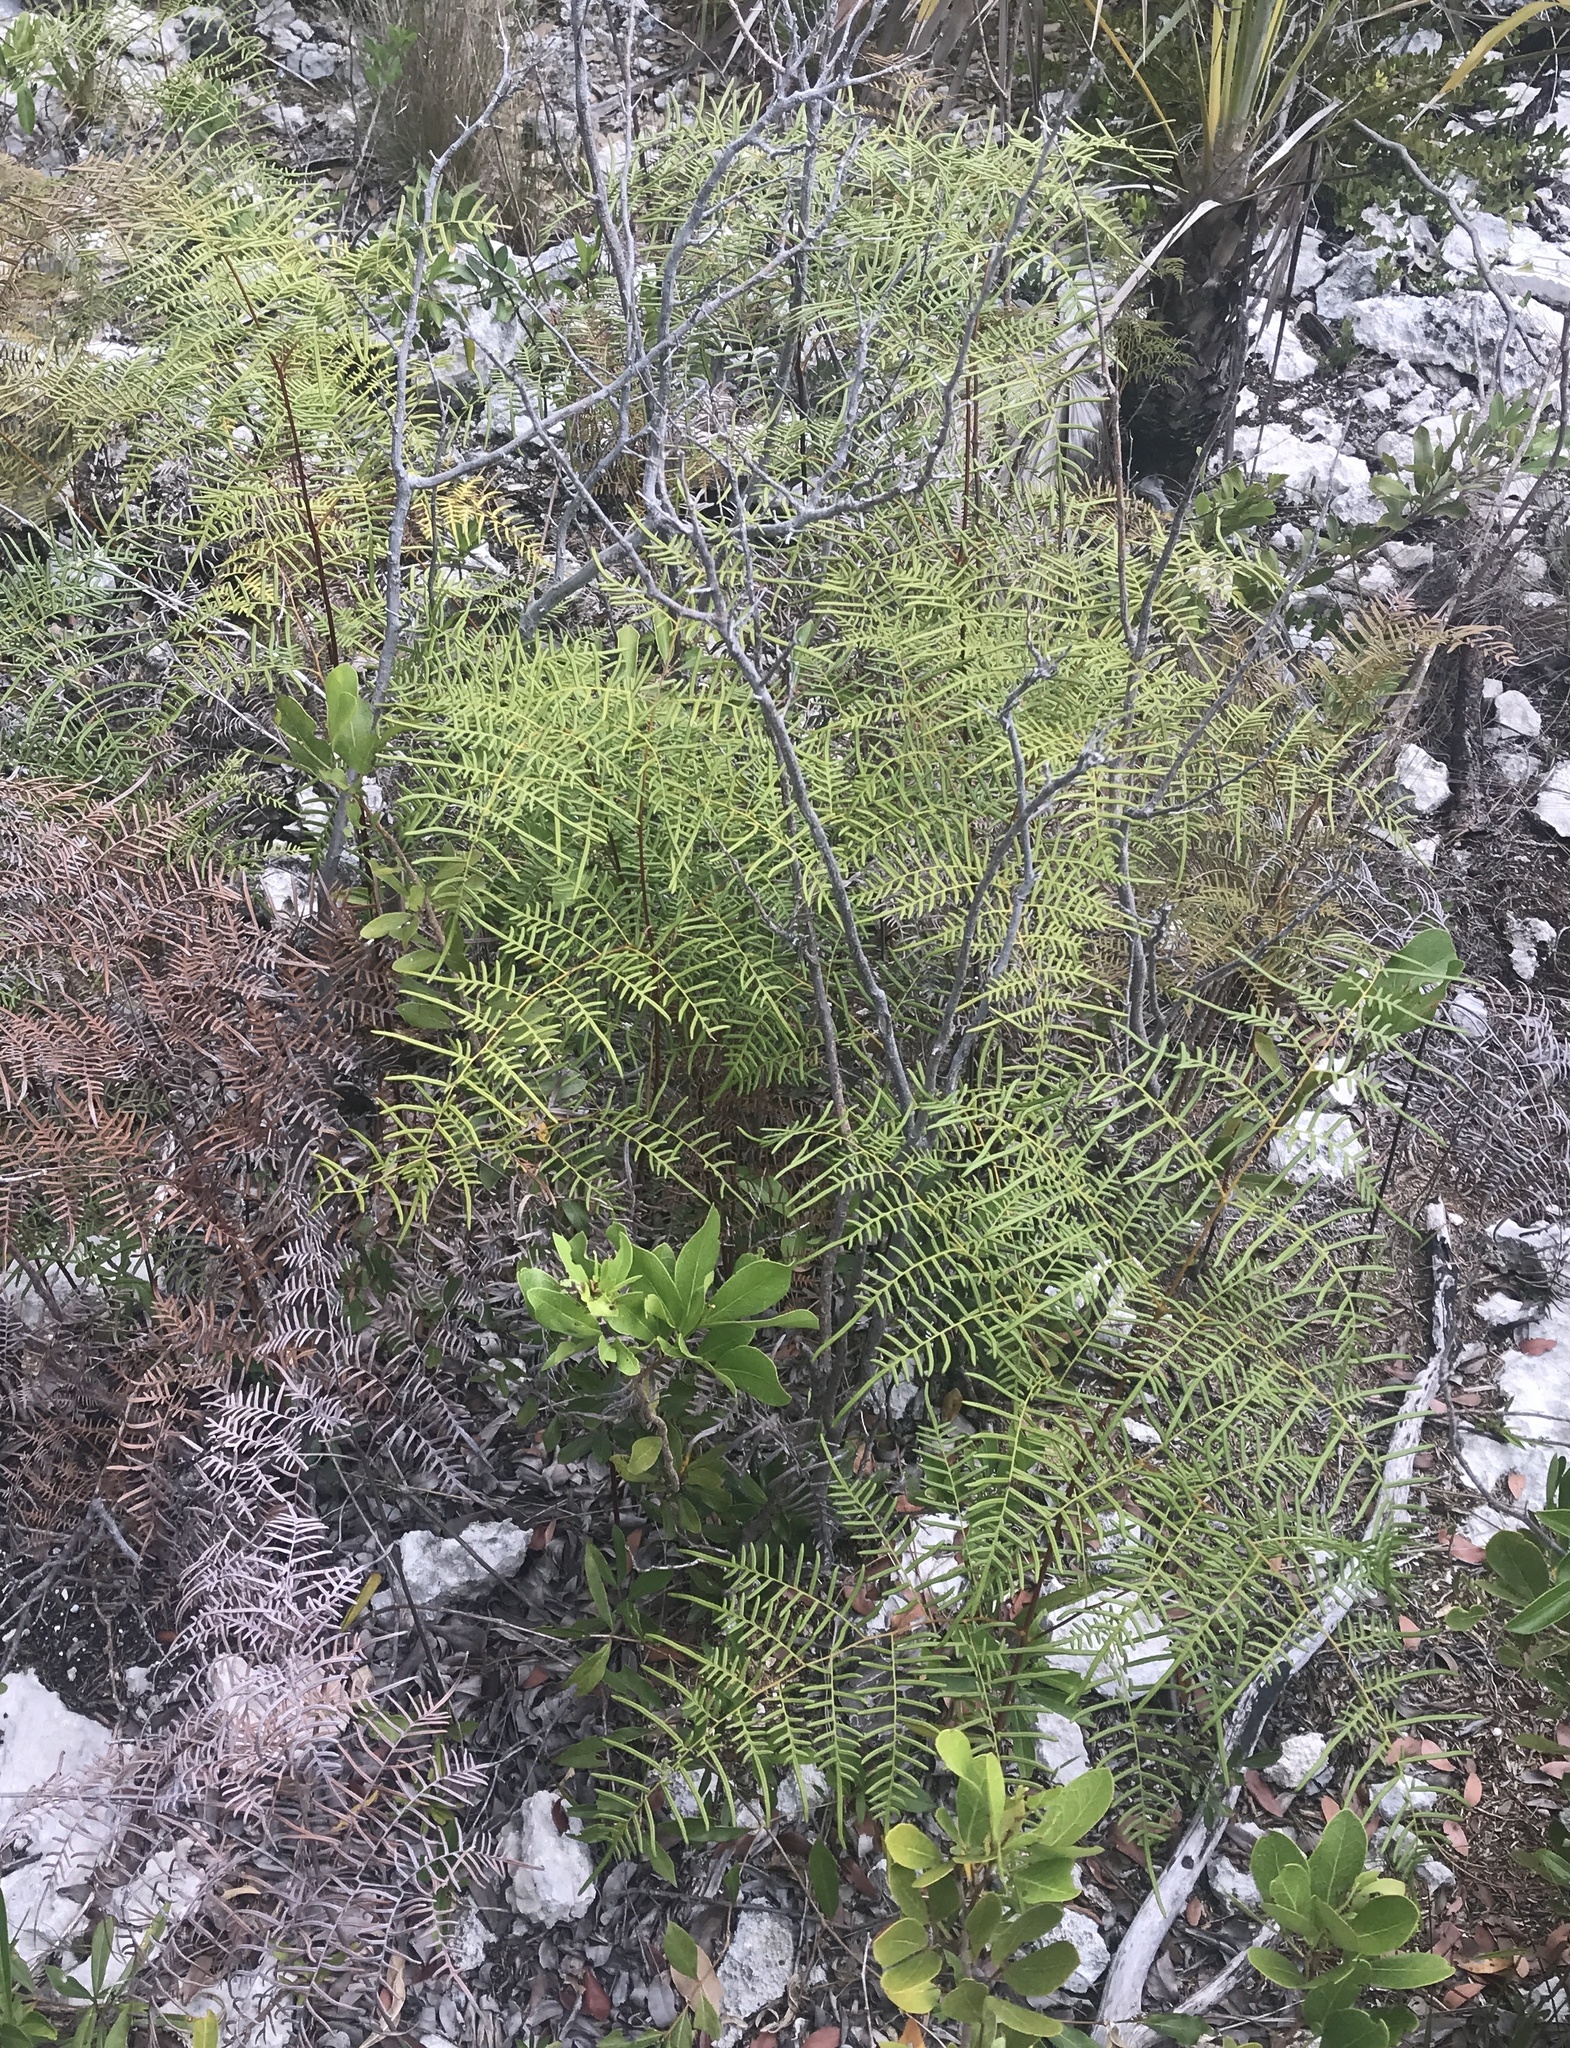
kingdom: Plantae
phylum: Tracheophyta
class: Polypodiopsida
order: Polypodiales
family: Dennstaedtiaceae
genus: Pteridium
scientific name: Pteridium caudatum
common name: Southern bracken fern
